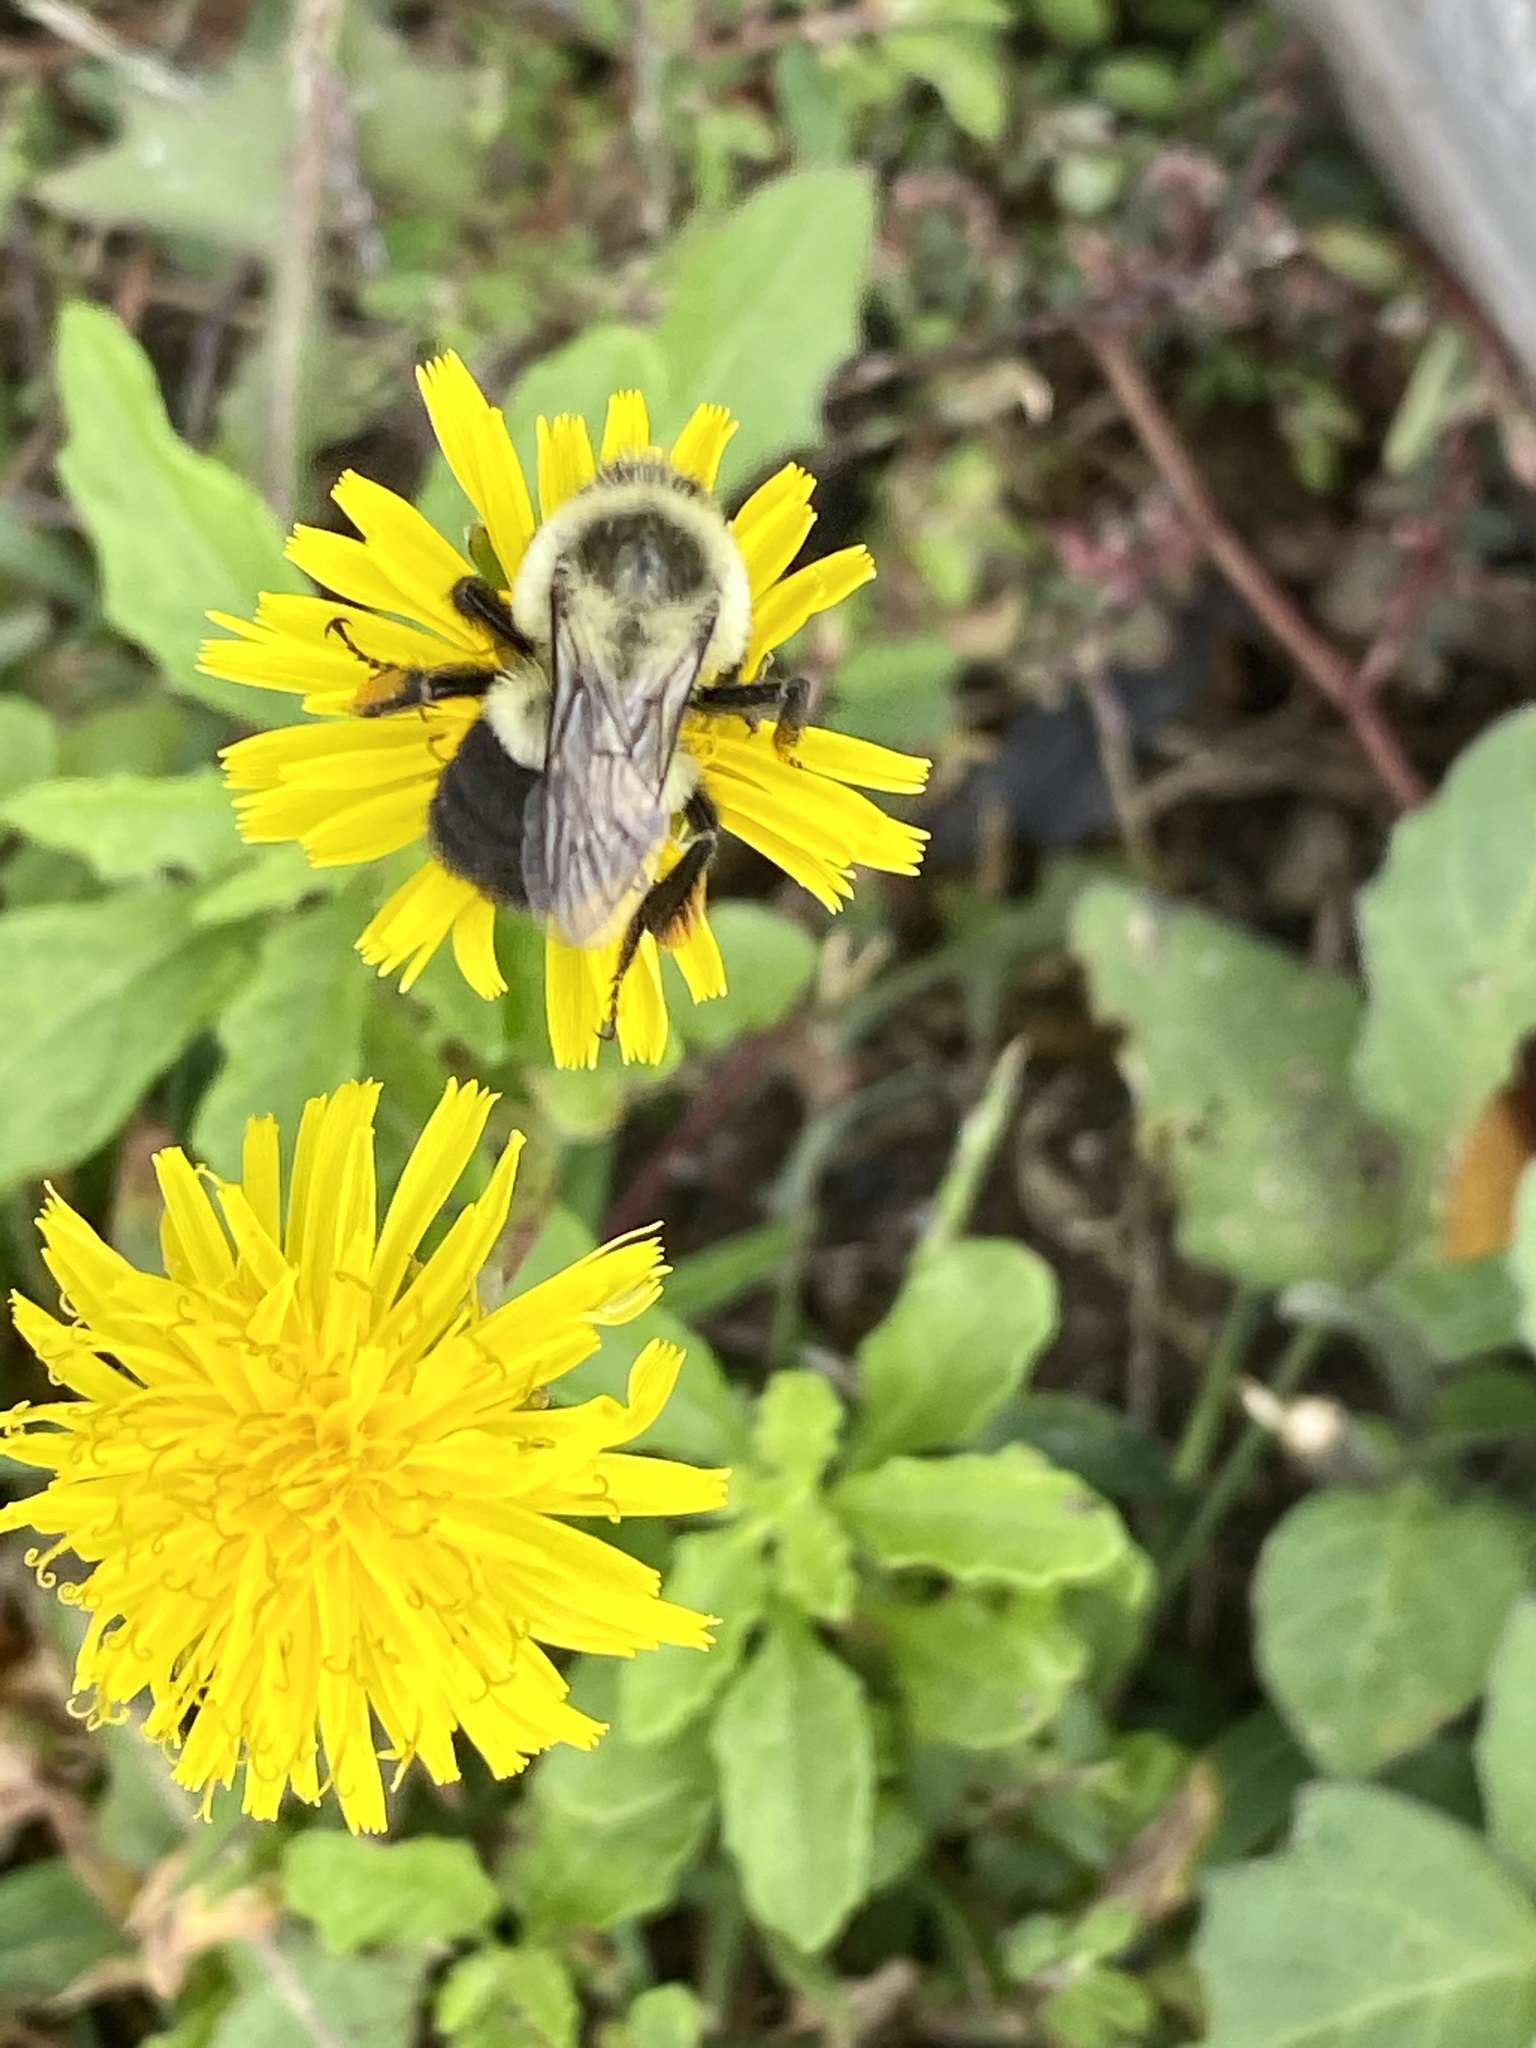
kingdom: Animalia
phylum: Arthropoda
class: Insecta
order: Hymenoptera
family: Apidae
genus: Bombus
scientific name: Bombus impatiens
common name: Common eastern bumble bee
